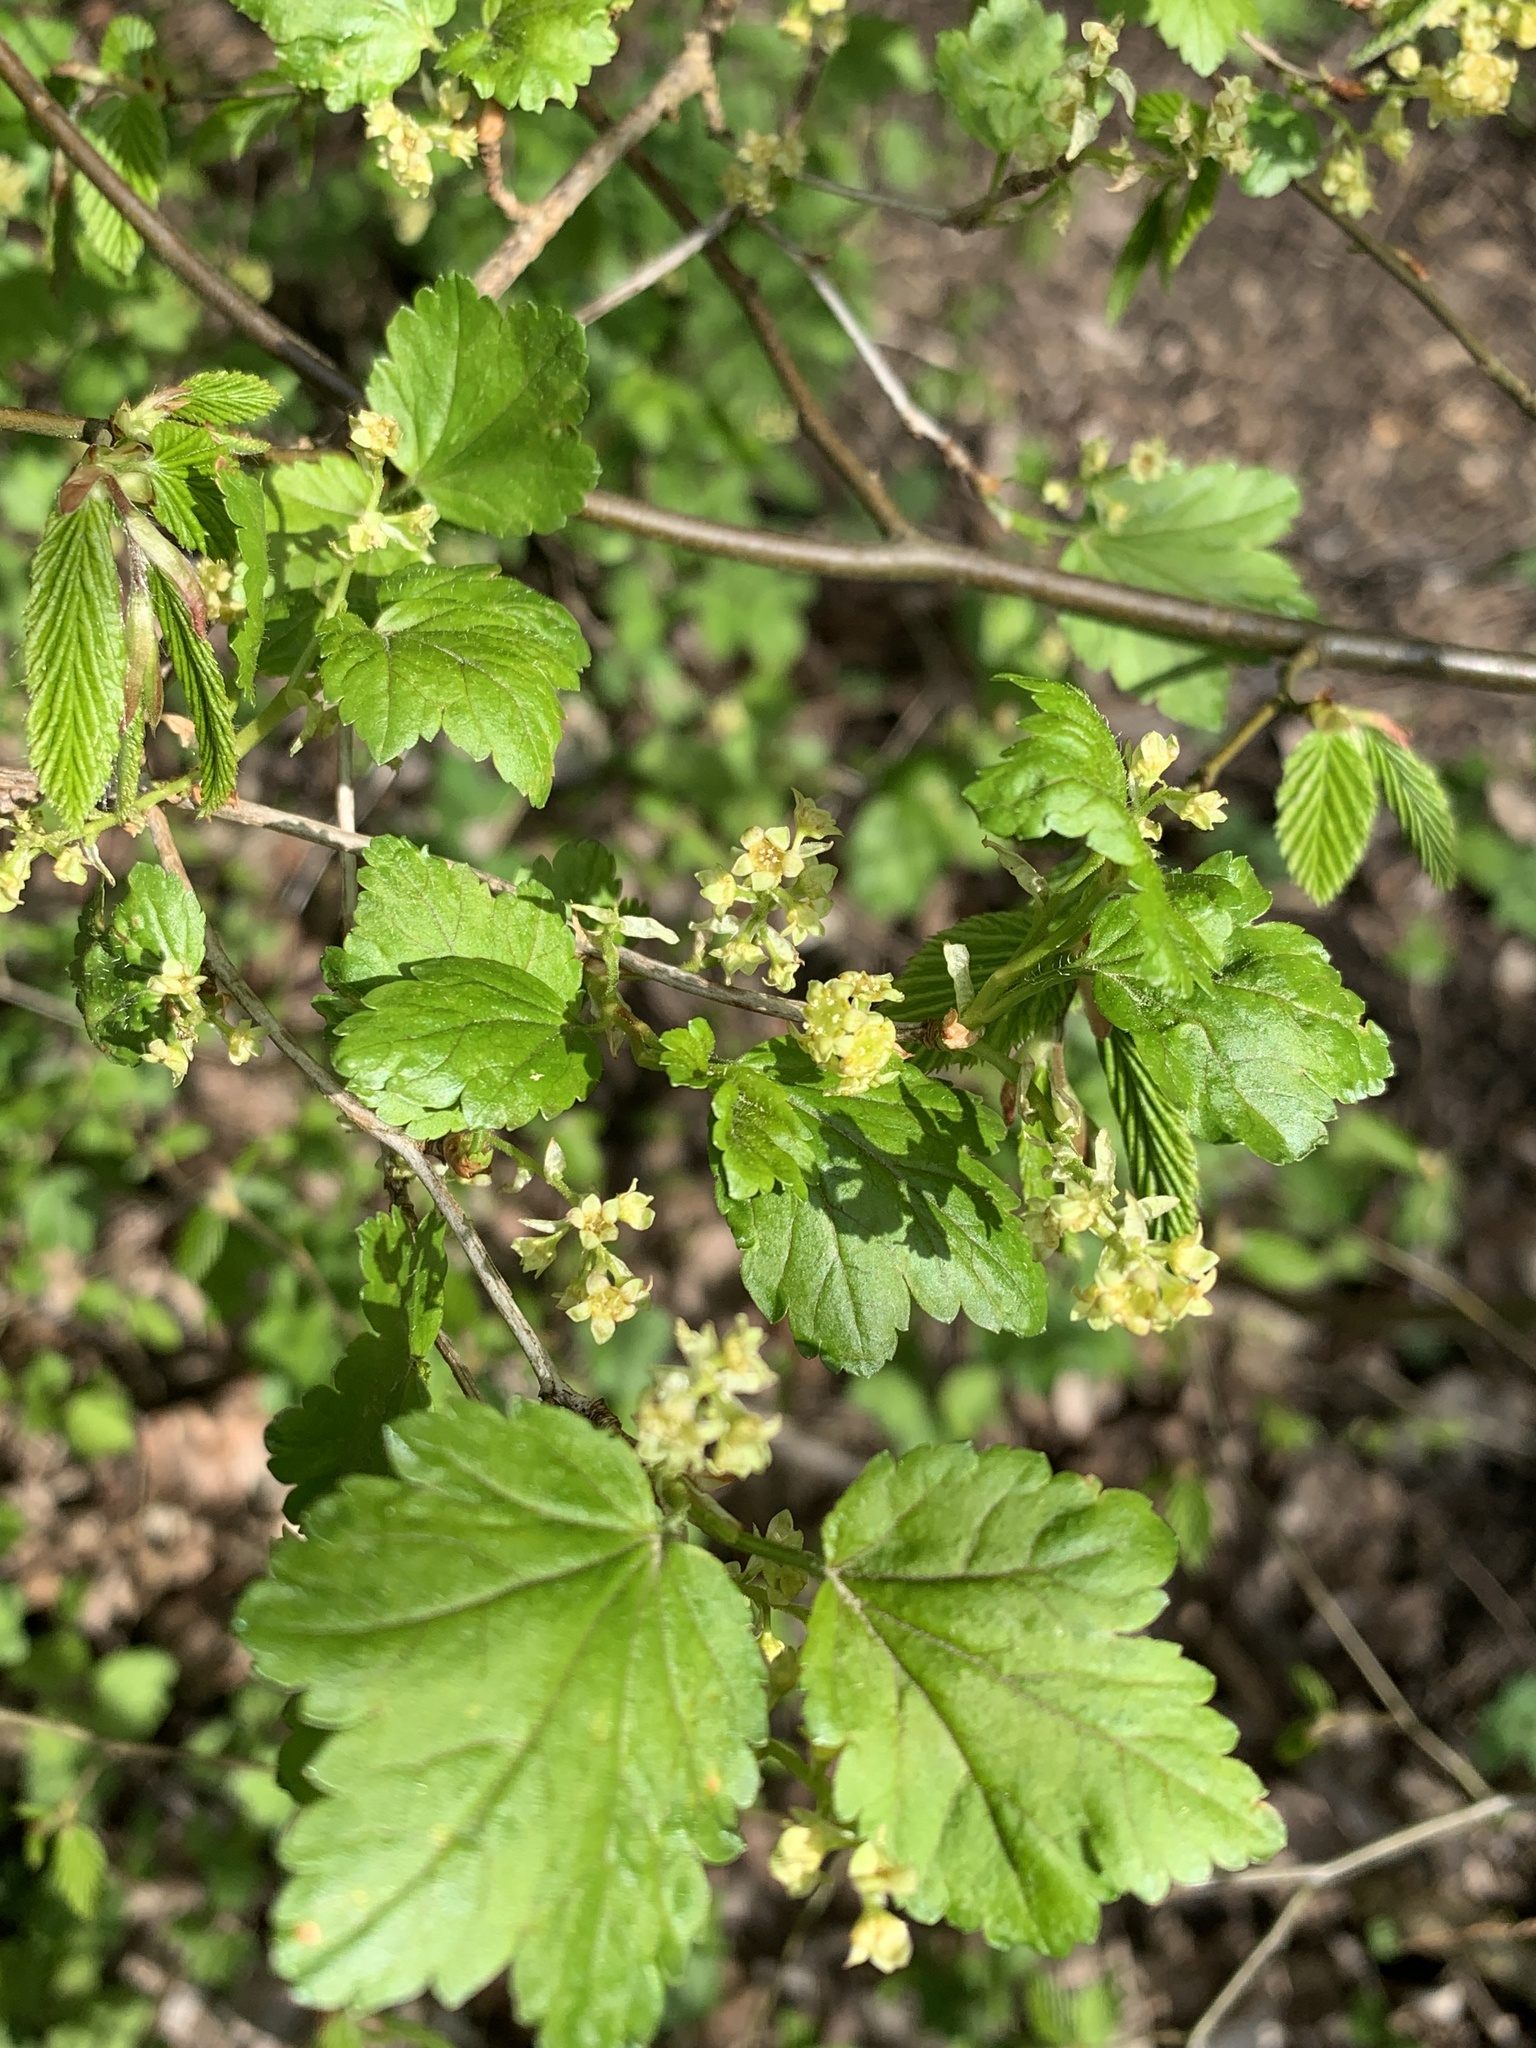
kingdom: Plantae
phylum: Tracheophyta
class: Magnoliopsida
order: Saxifragales
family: Grossulariaceae
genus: Ribes
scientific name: Ribes alpinum
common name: Alpine currant
